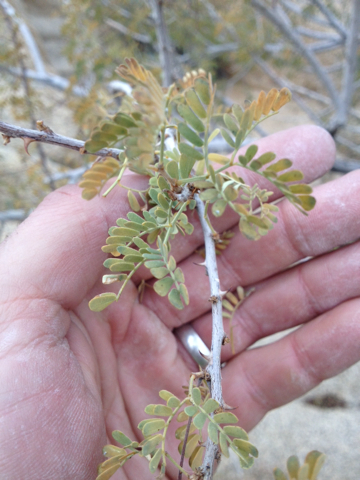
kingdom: Plantae
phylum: Tracheophyta
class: Magnoliopsida
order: Fabales
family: Fabaceae
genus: Senegalia
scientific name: Senegalia greggii
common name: Texas-mimosa
